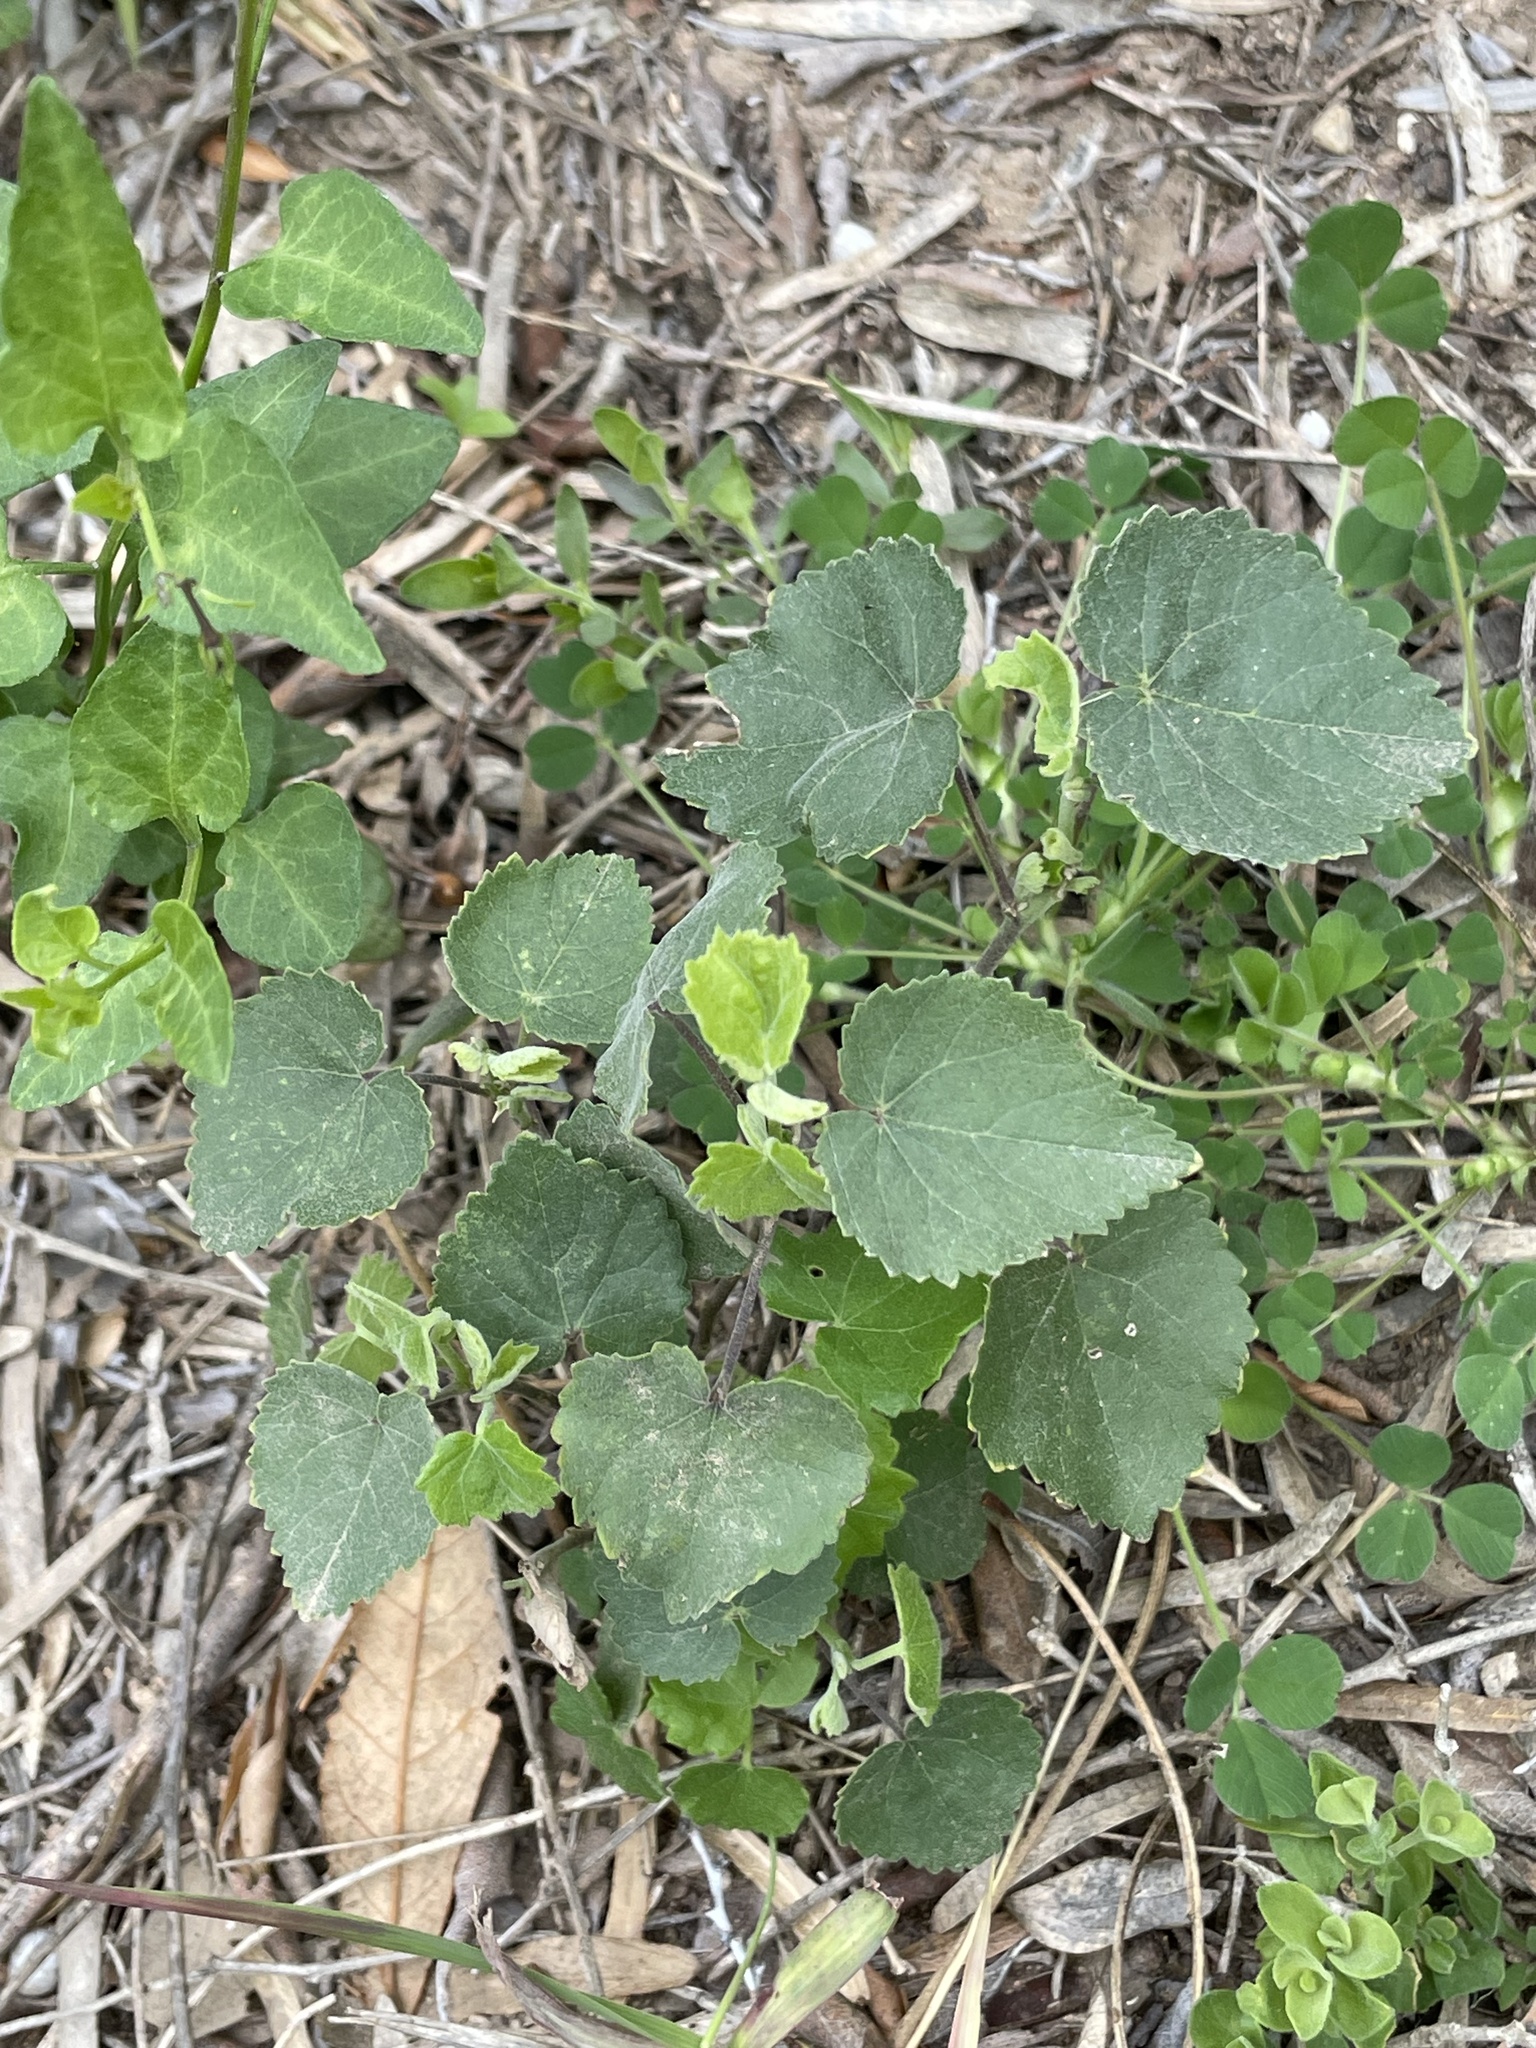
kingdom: Plantae
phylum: Tracheophyta
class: Magnoliopsida
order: Malvales
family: Malvaceae
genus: Abutilon
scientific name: Abutilon fruticosum
